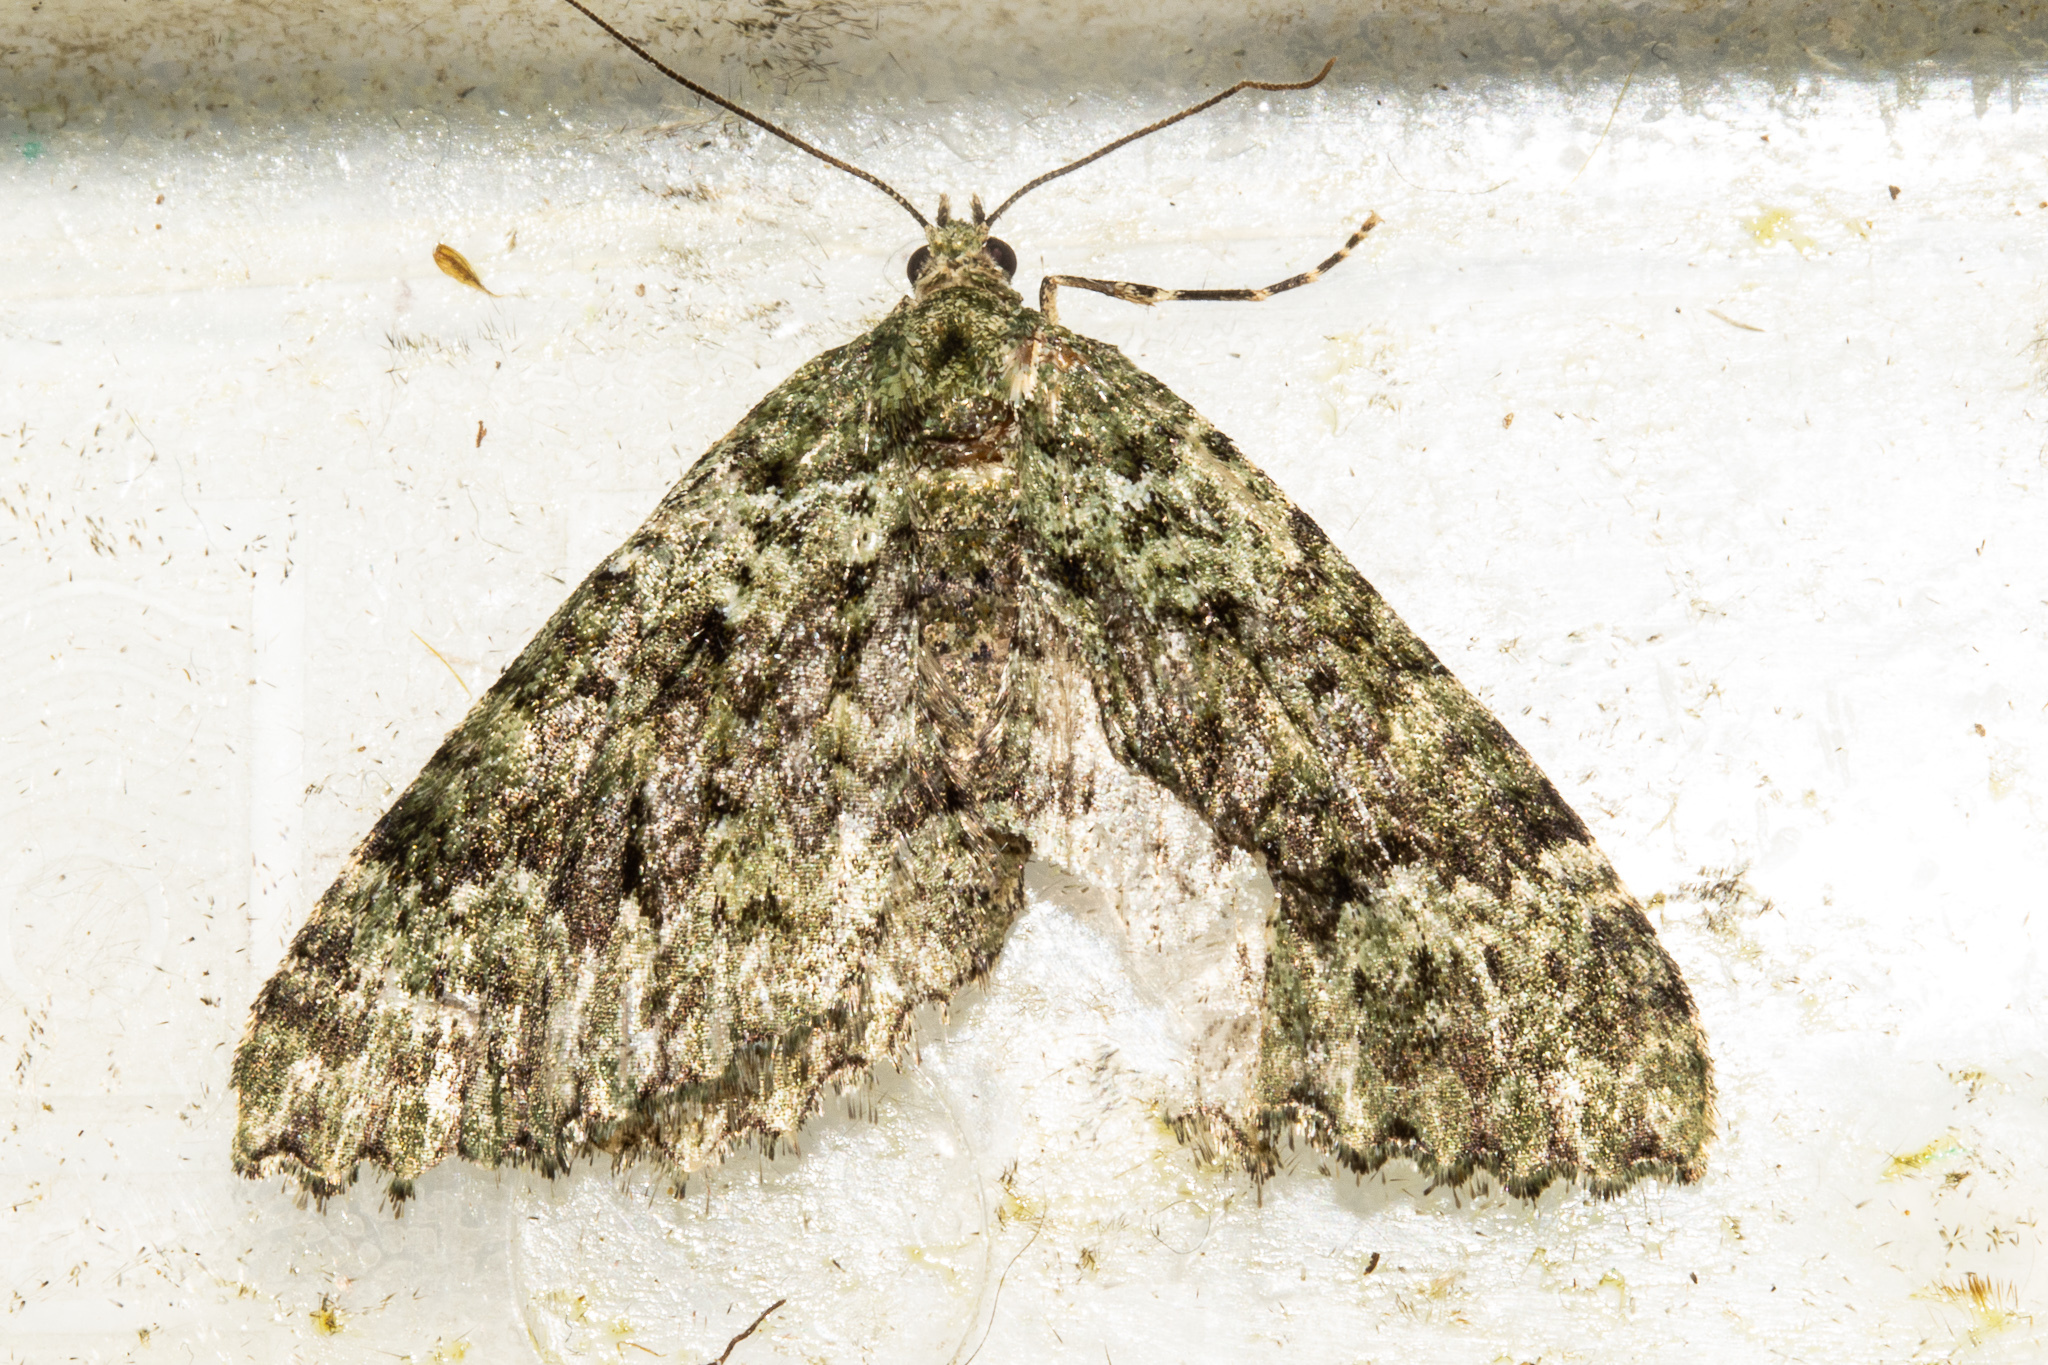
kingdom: Animalia
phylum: Arthropoda
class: Insecta
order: Lepidoptera
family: Geometridae
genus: Austrocidaria
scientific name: Austrocidaria umbrosa
